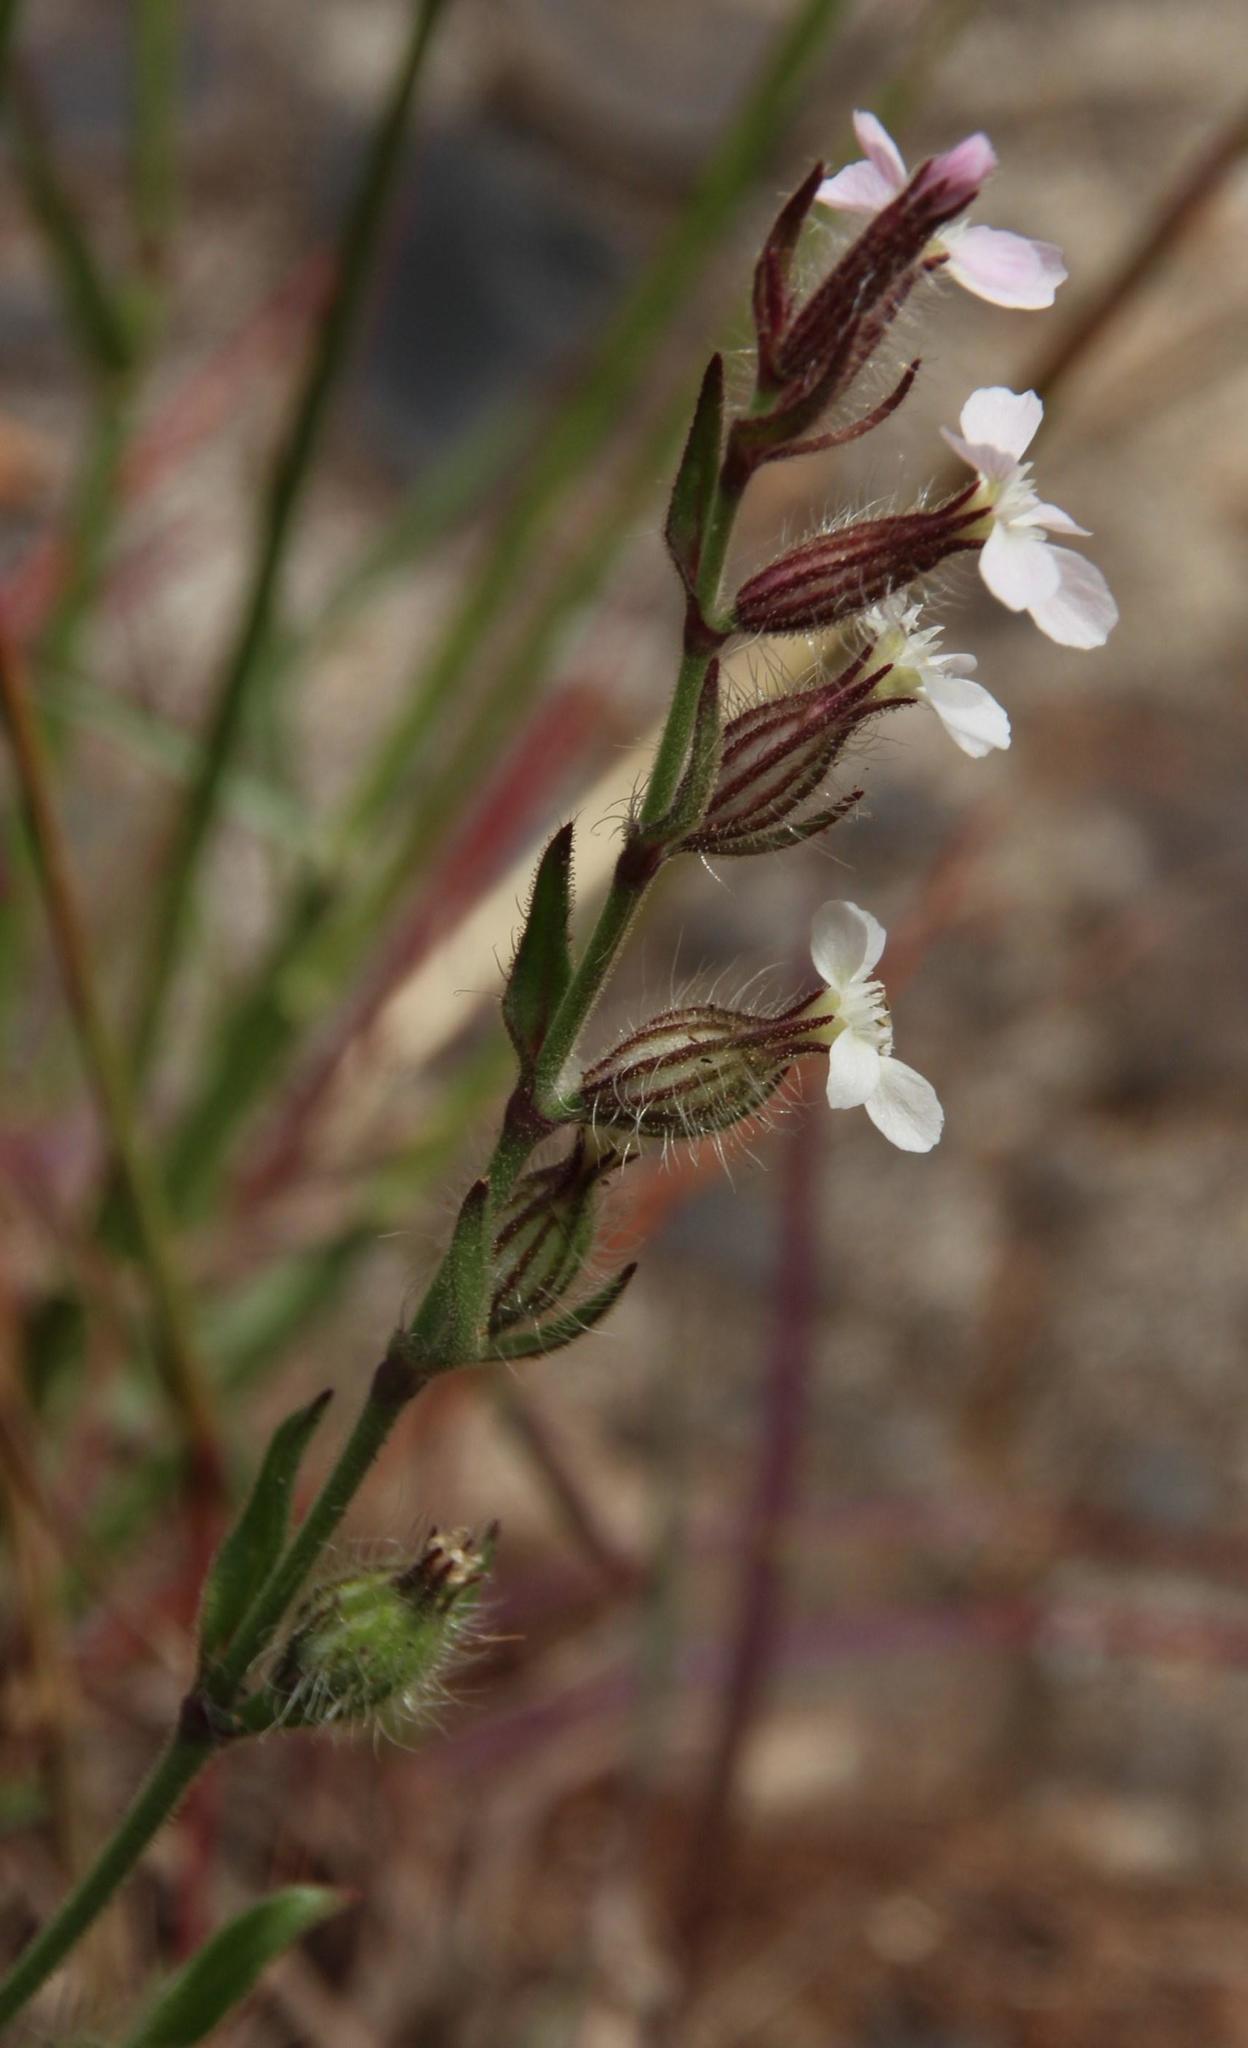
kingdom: Plantae
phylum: Tracheophyta
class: Magnoliopsida
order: Caryophyllales
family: Caryophyllaceae
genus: Silene
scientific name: Silene gallica
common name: Small-flowered catchfly
